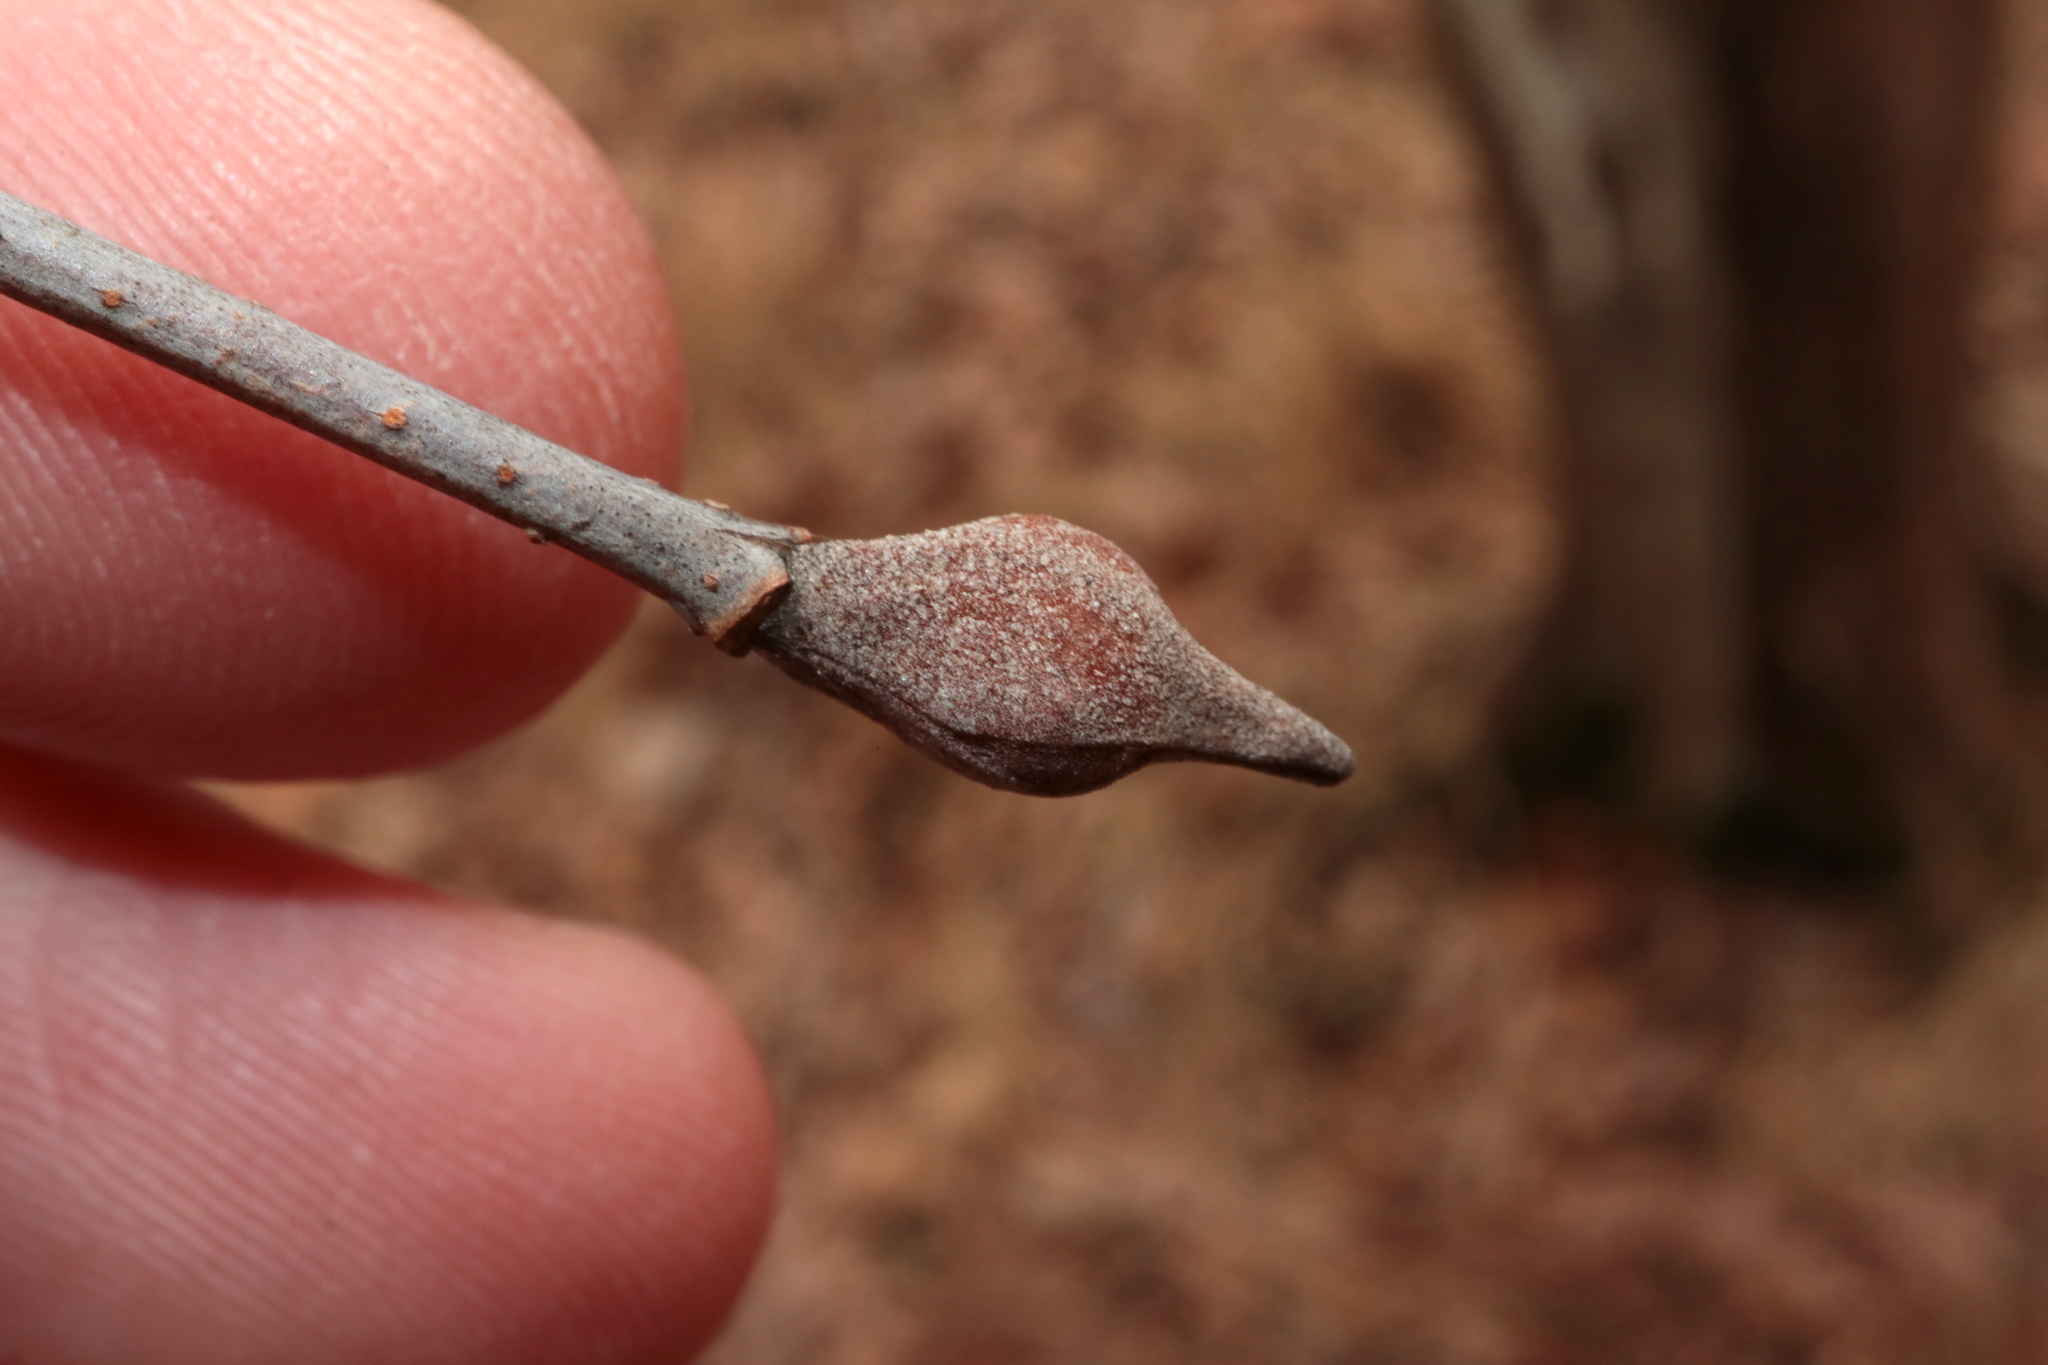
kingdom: Plantae
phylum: Tracheophyta
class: Magnoliopsida
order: Dipsacales
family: Viburnaceae
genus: Viburnum
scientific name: Viburnum prunifolium
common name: Black haw
